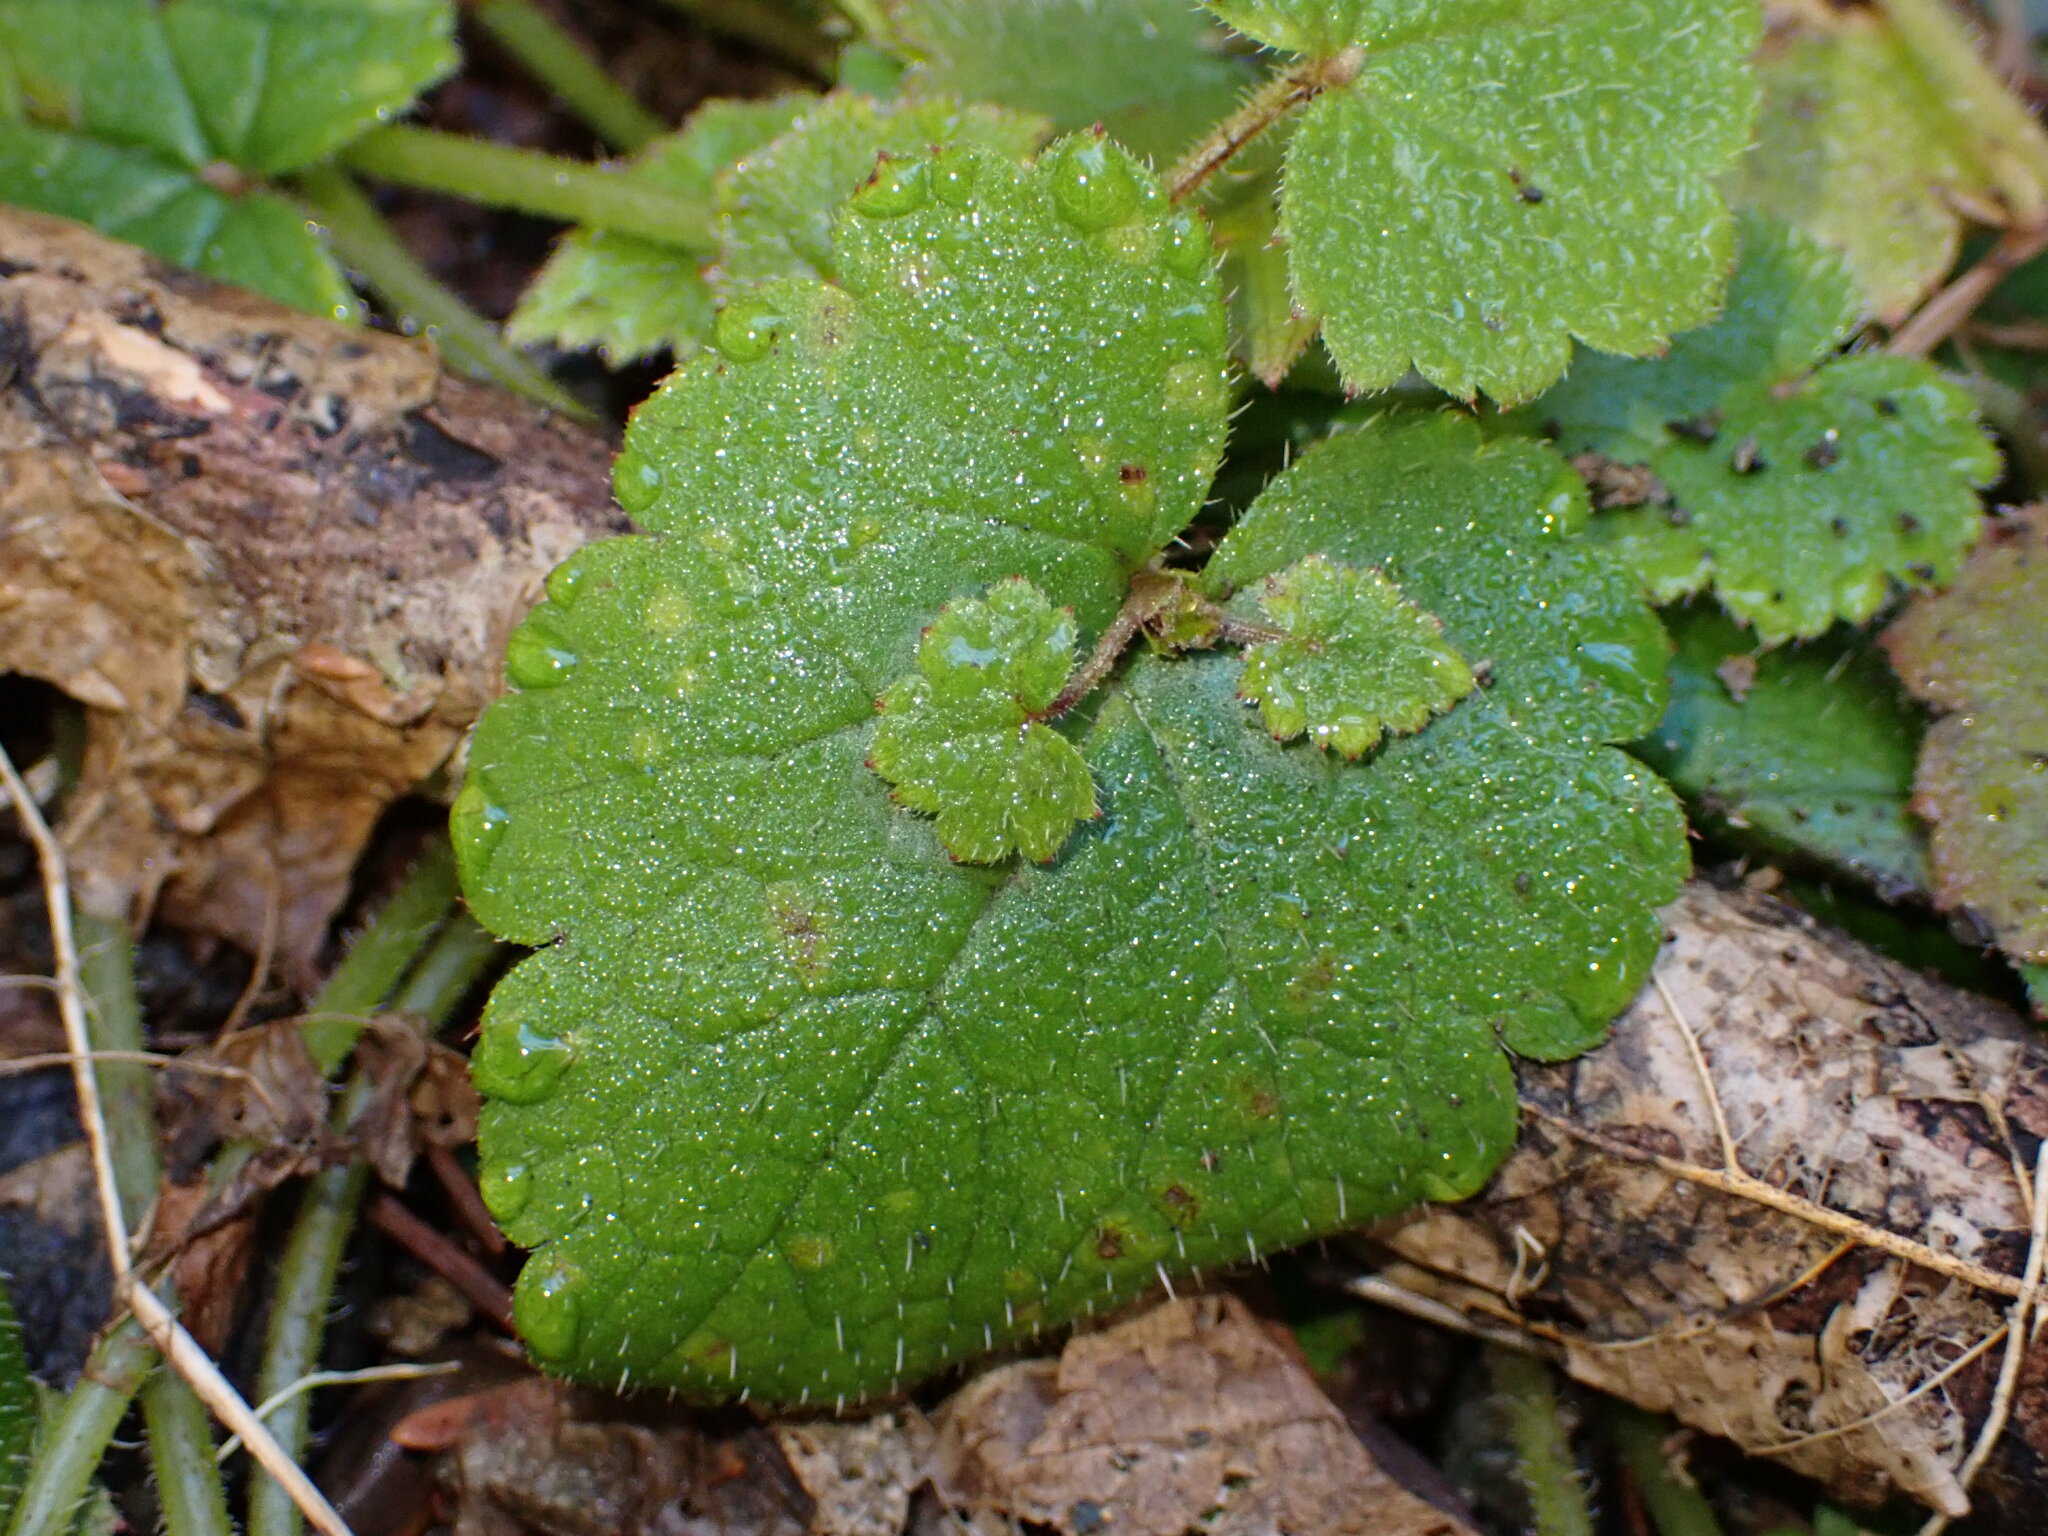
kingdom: Plantae
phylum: Tracheophyta
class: Magnoliopsida
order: Saxifragales
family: Saxifragaceae
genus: Tolmiea
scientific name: Tolmiea menziesii
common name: Pick-a-back-plant
